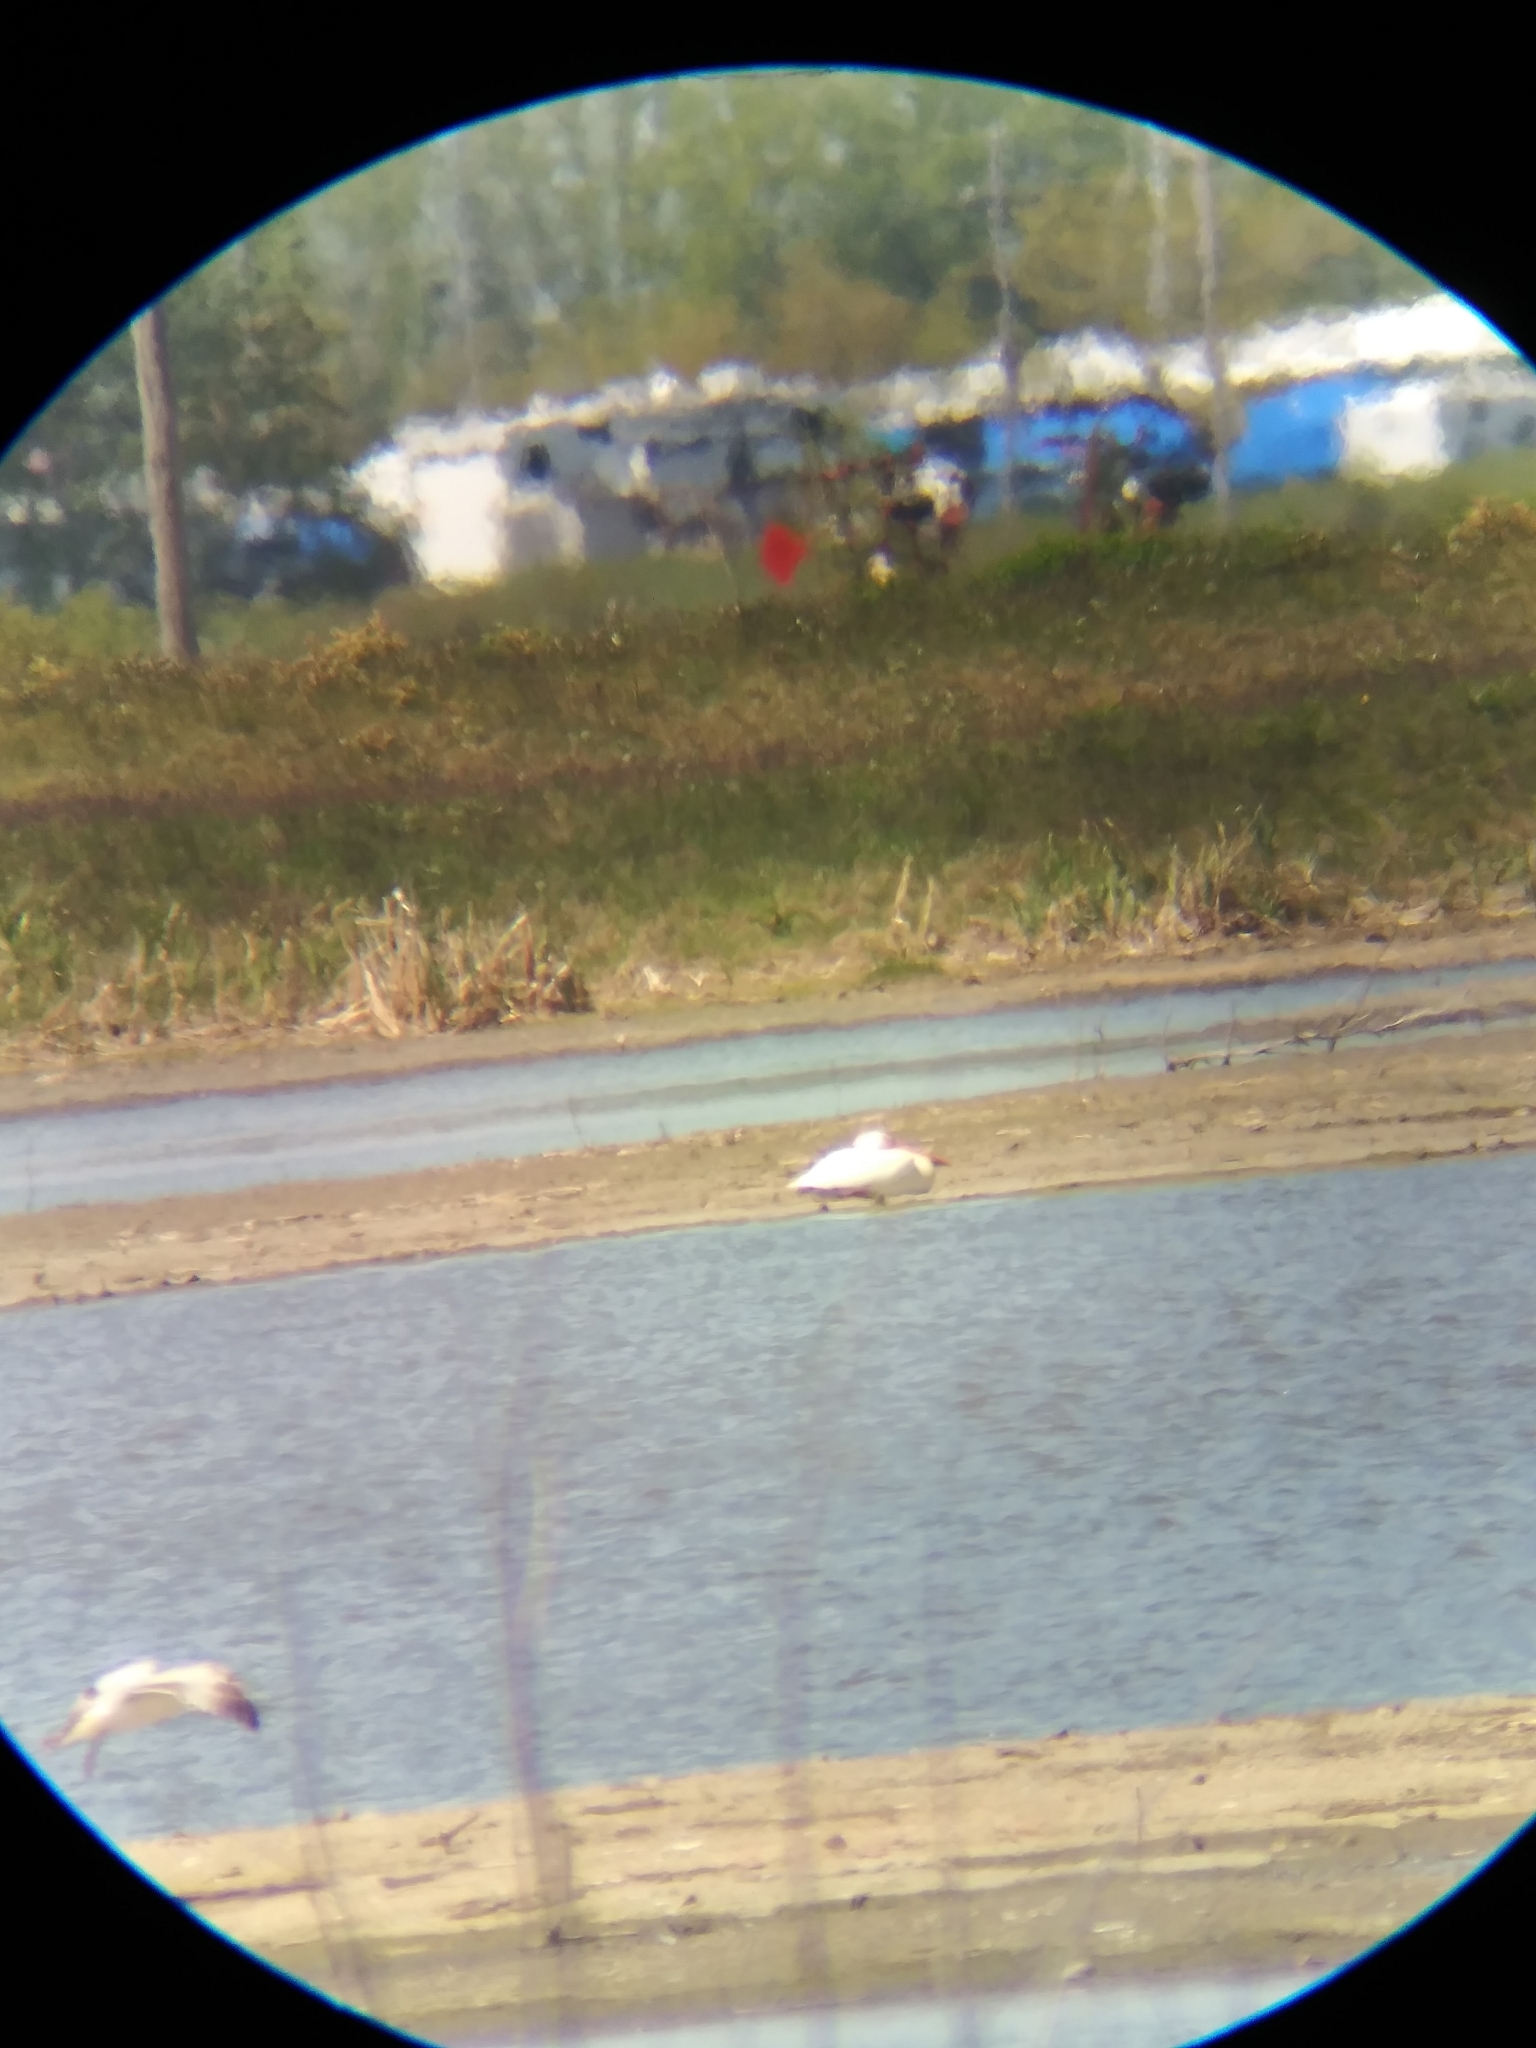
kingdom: Animalia
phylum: Chordata
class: Aves
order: Pelecaniformes
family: Pelecanidae
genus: Pelecanus
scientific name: Pelecanus erythrorhynchos
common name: American white pelican
